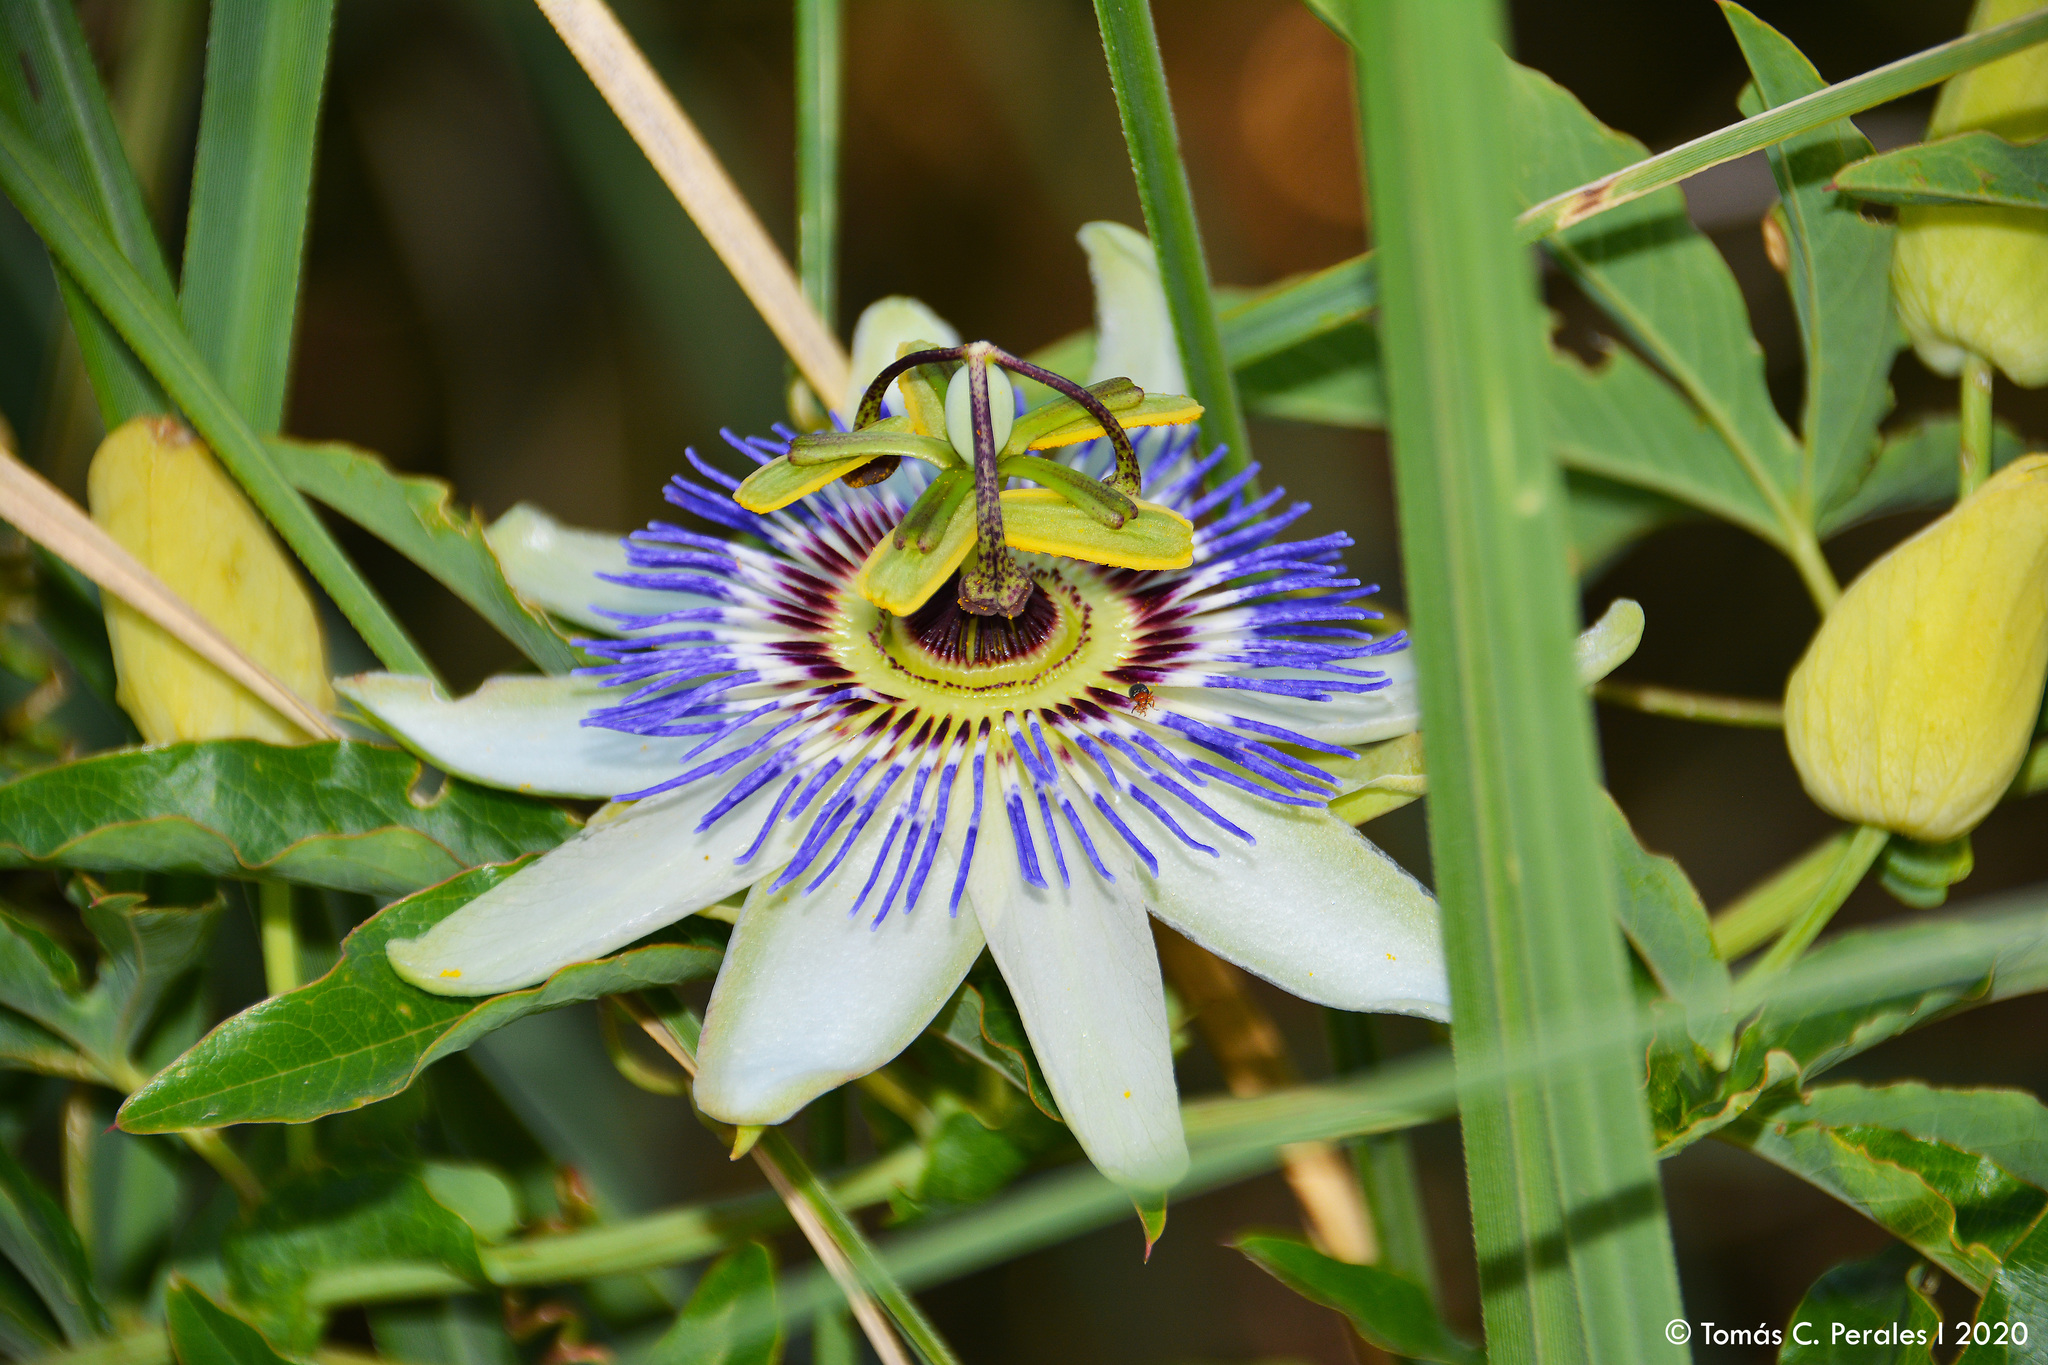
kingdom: Plantae
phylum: Tracheophyta
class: Magnoliopsida
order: Malpighiales
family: Passifloraceae
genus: Passiflora
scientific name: Passiflora caerulea
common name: Blue passionflower
